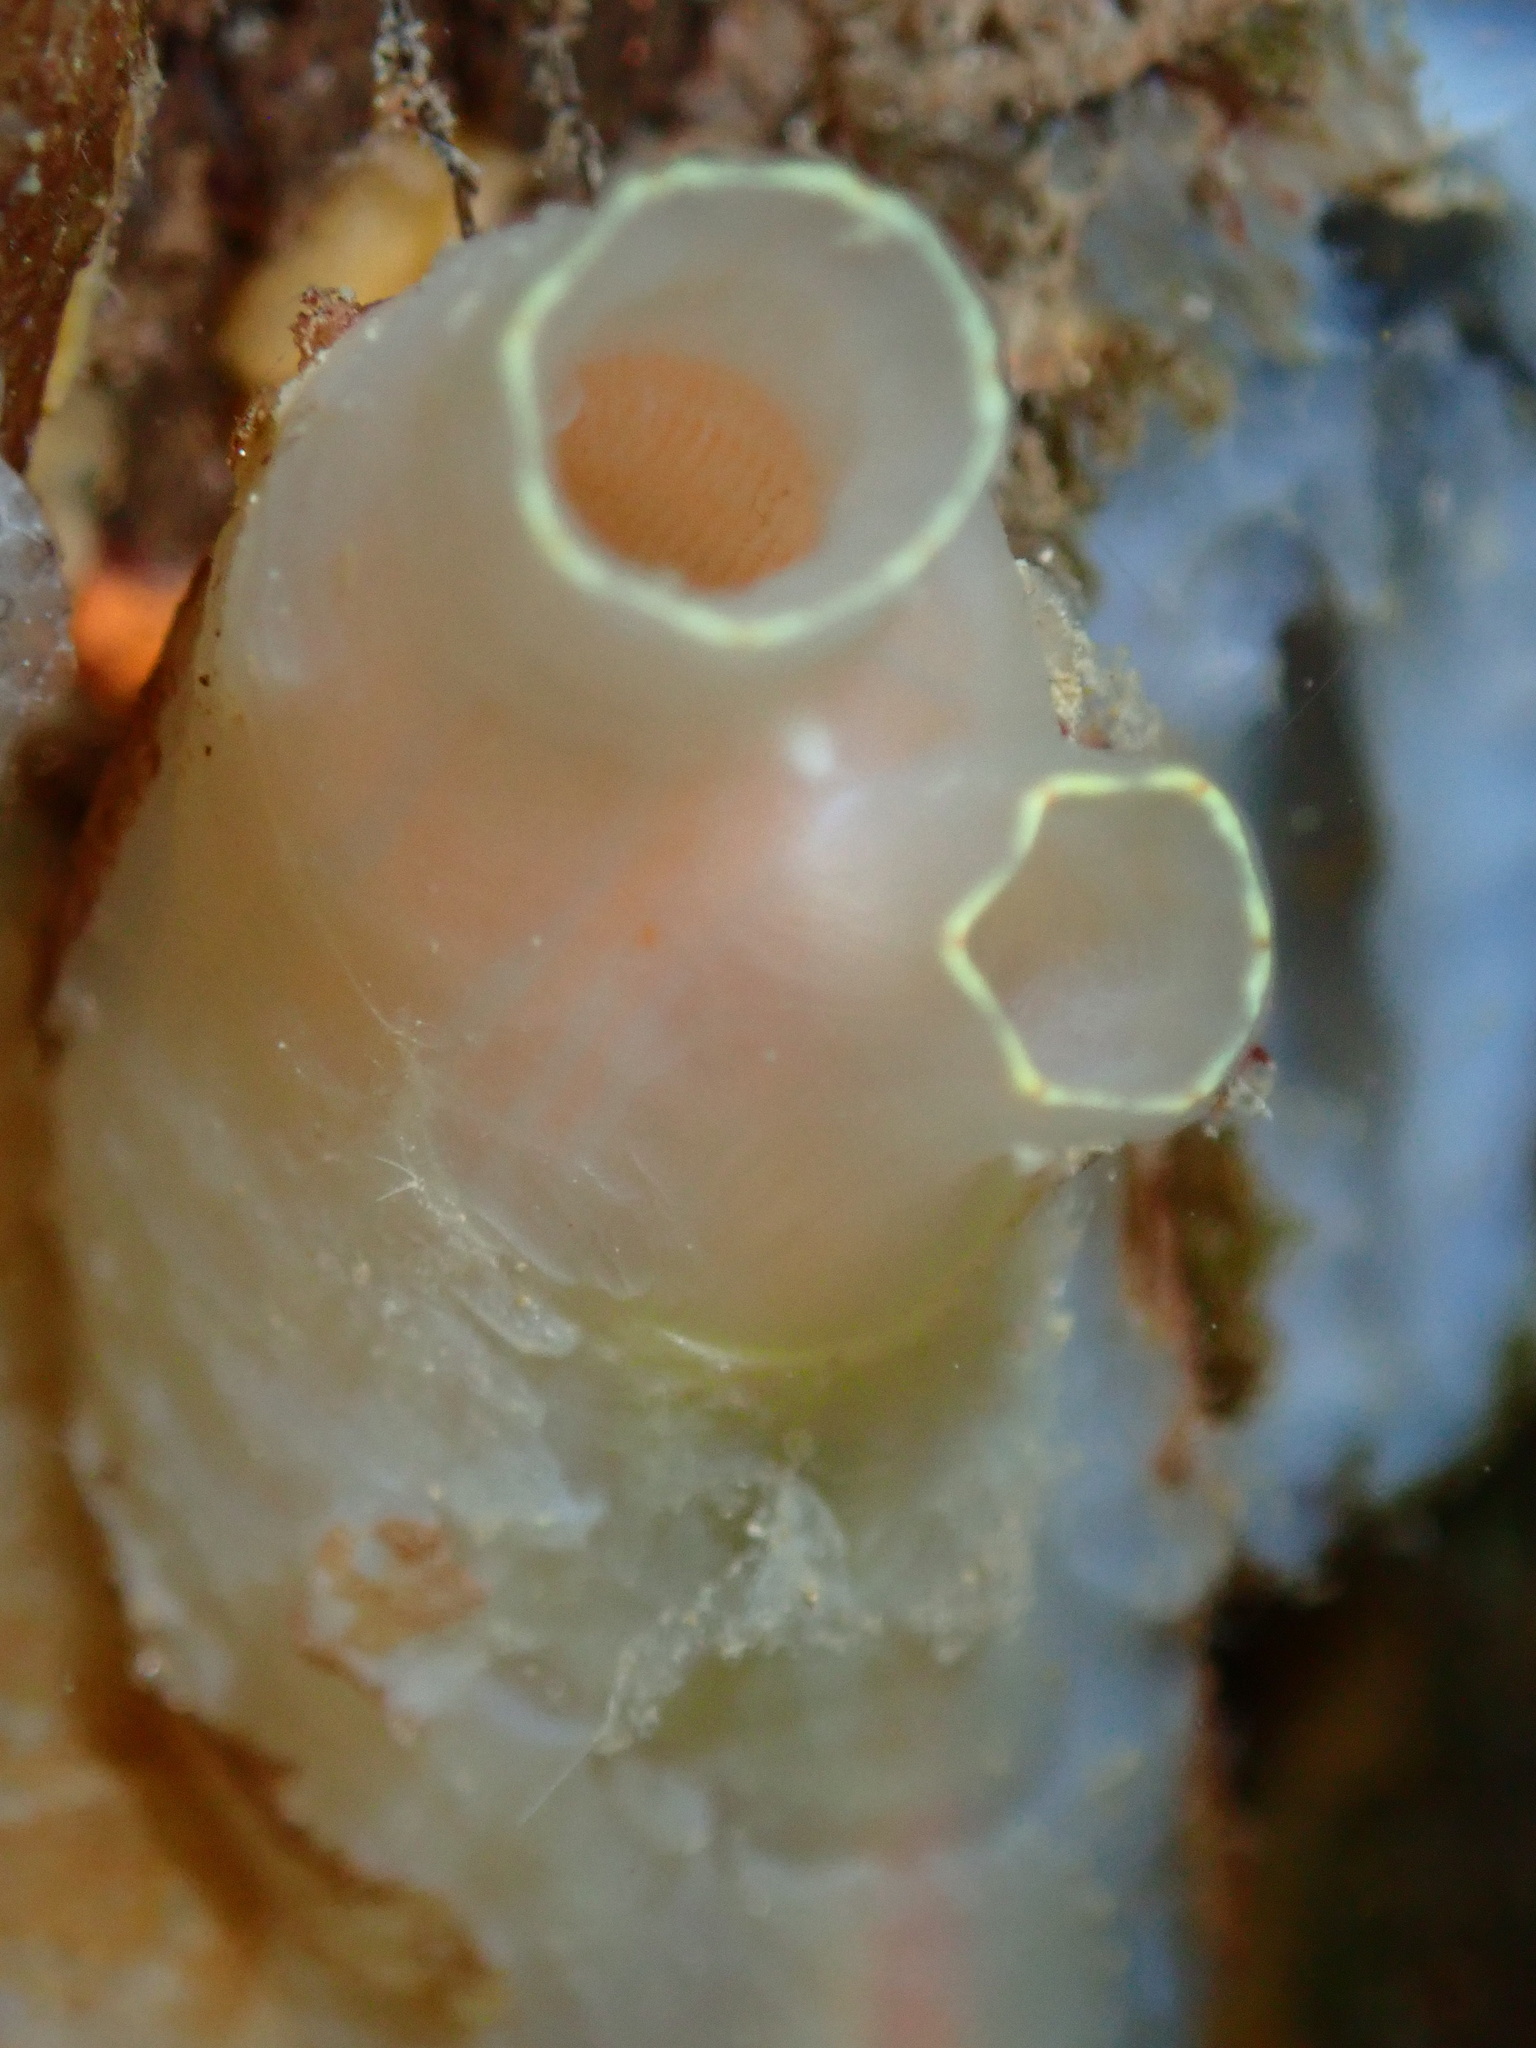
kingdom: Animalia
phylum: Chordata
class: Ascidiacea
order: Phlebobranchia
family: Cionidae
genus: Ciona
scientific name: Ciona intestinalis
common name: Vase tunicate
